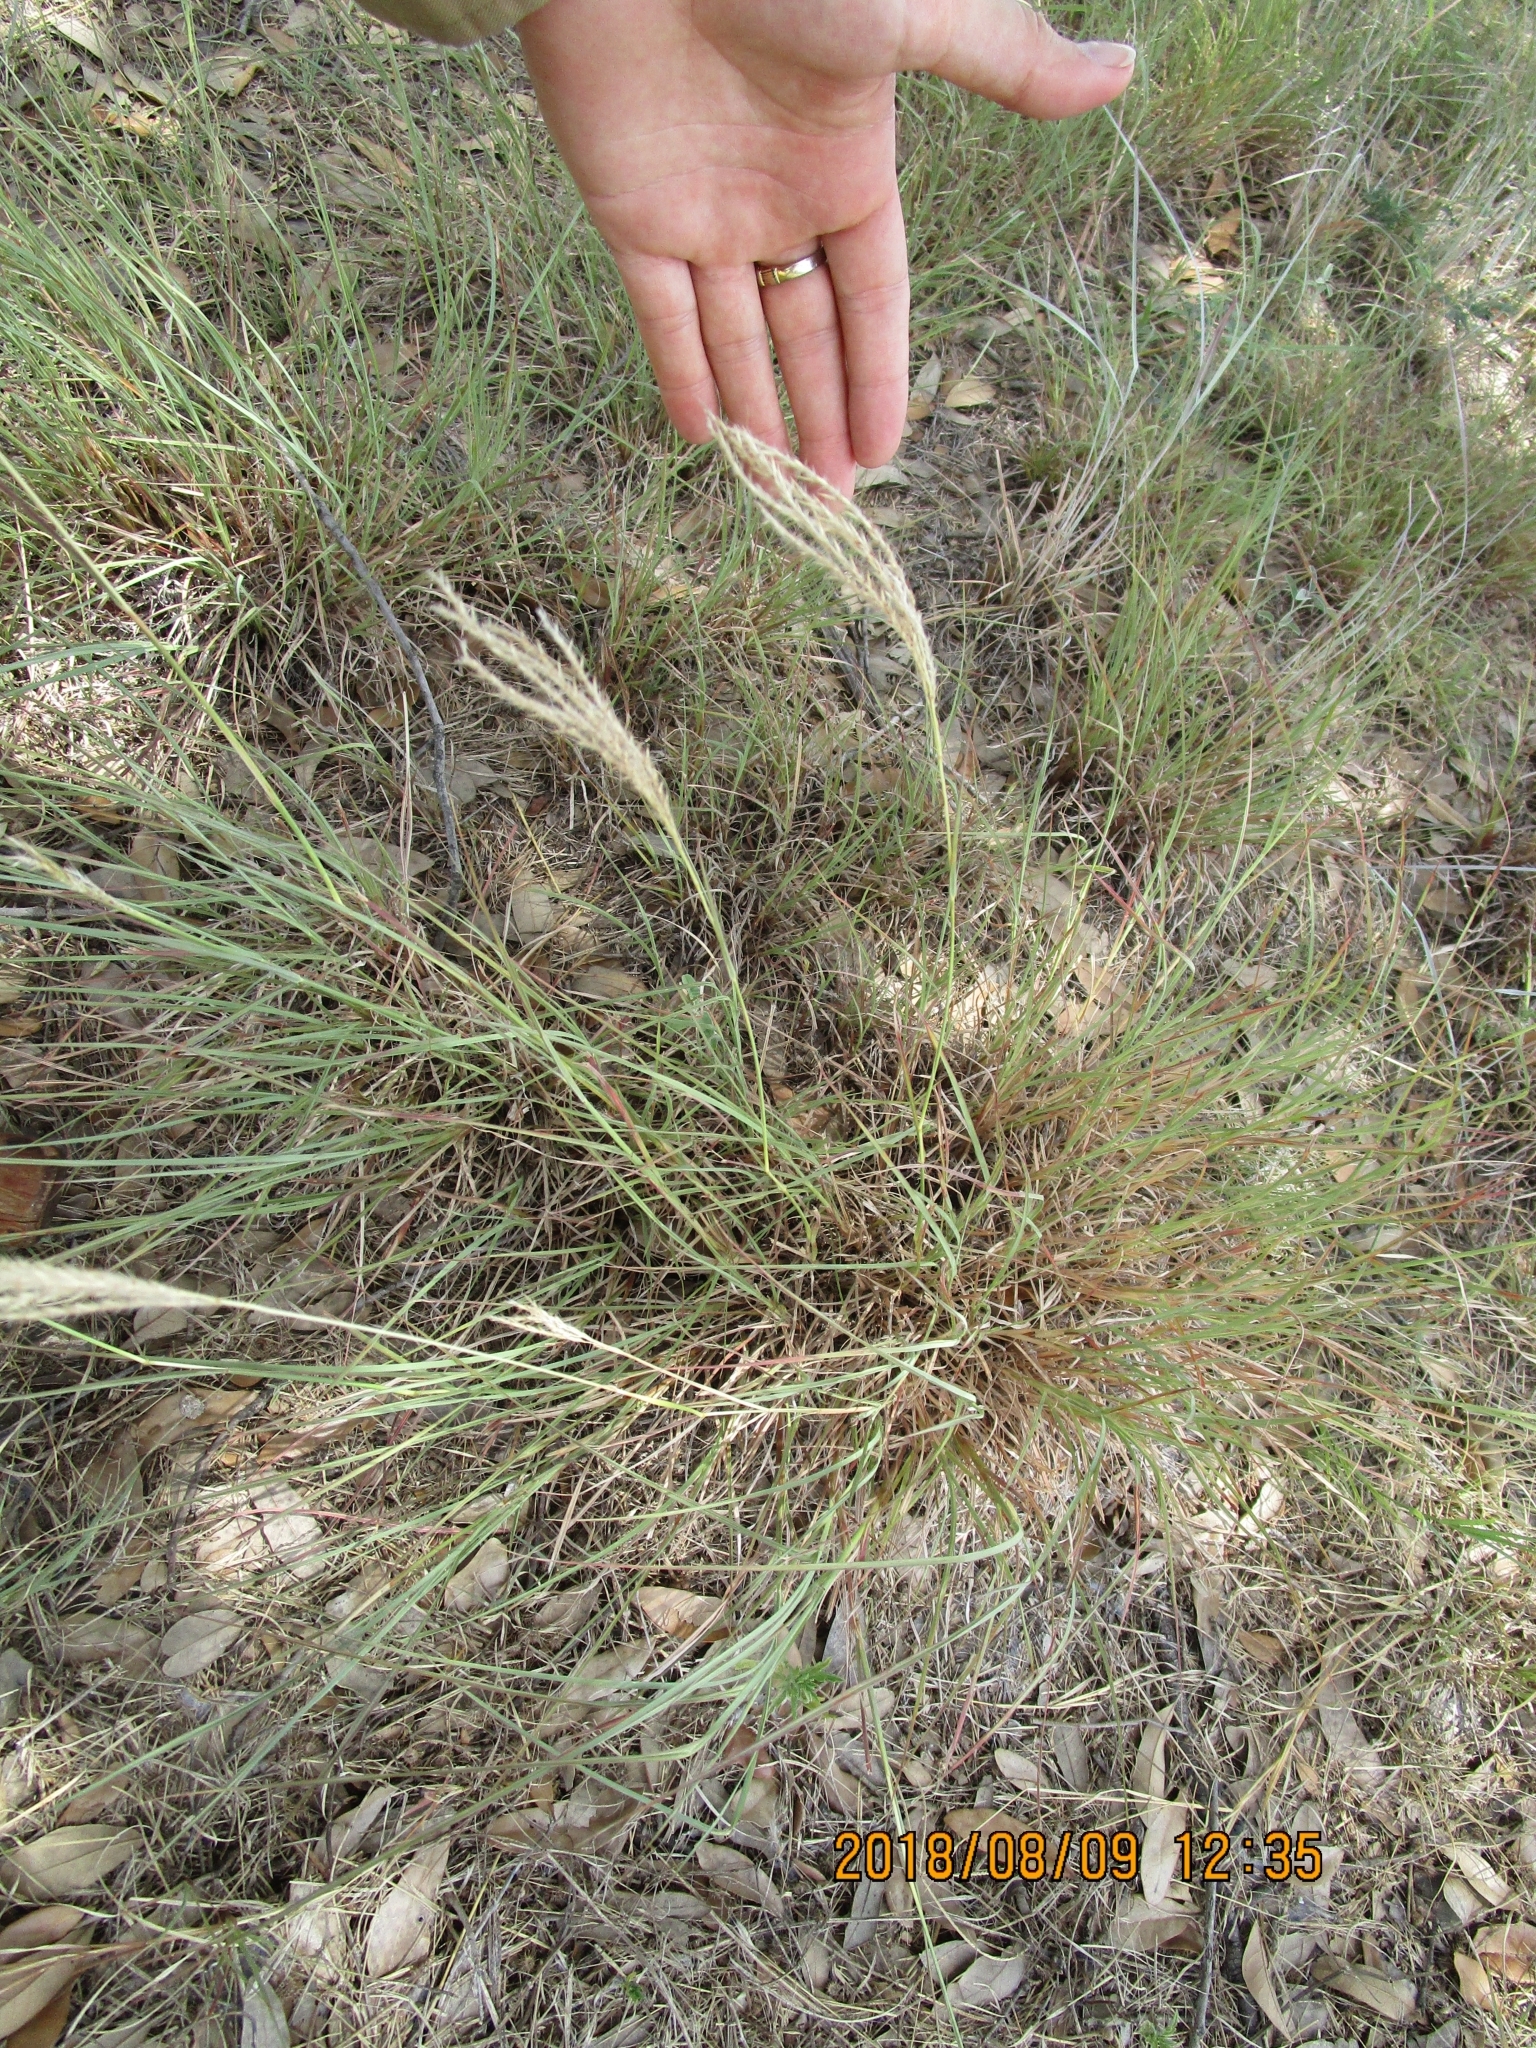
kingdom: Plantae
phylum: Tracheophyta
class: Liliopsida
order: Poales
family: Poaceae
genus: Bothriochloa
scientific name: Bothriochloa ischaemum
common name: Yellow bluestem
